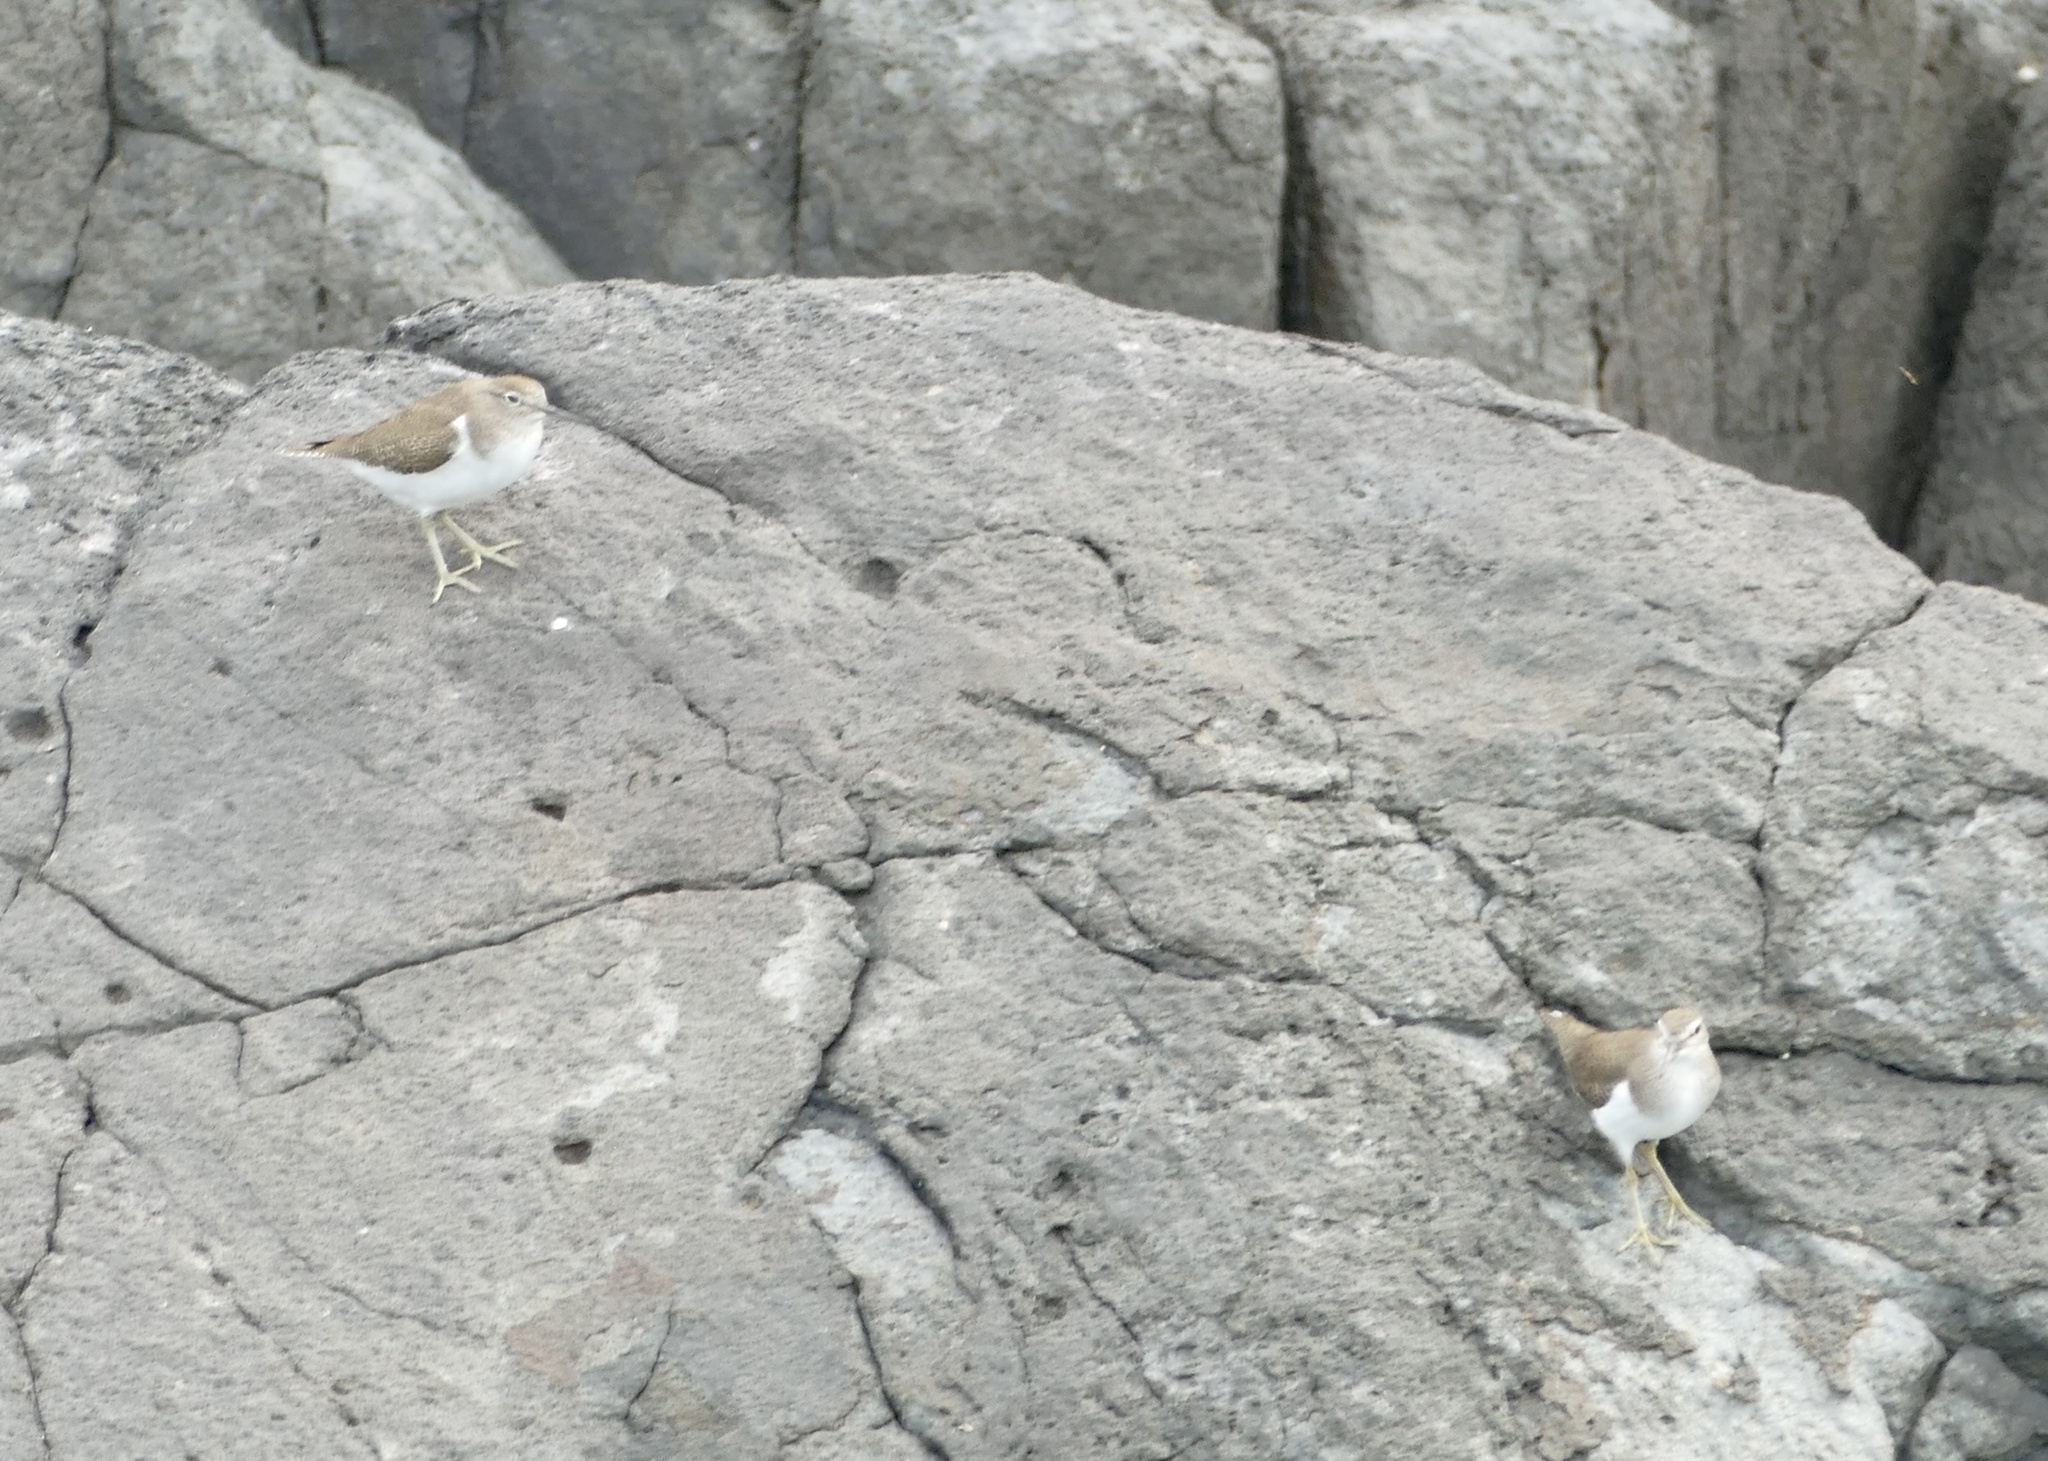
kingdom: Animalia
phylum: Chordata
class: Aves
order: Charadriiformes
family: Scolopacidae
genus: Actitis
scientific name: Actitis hypoleucos
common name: Common sandpiper
